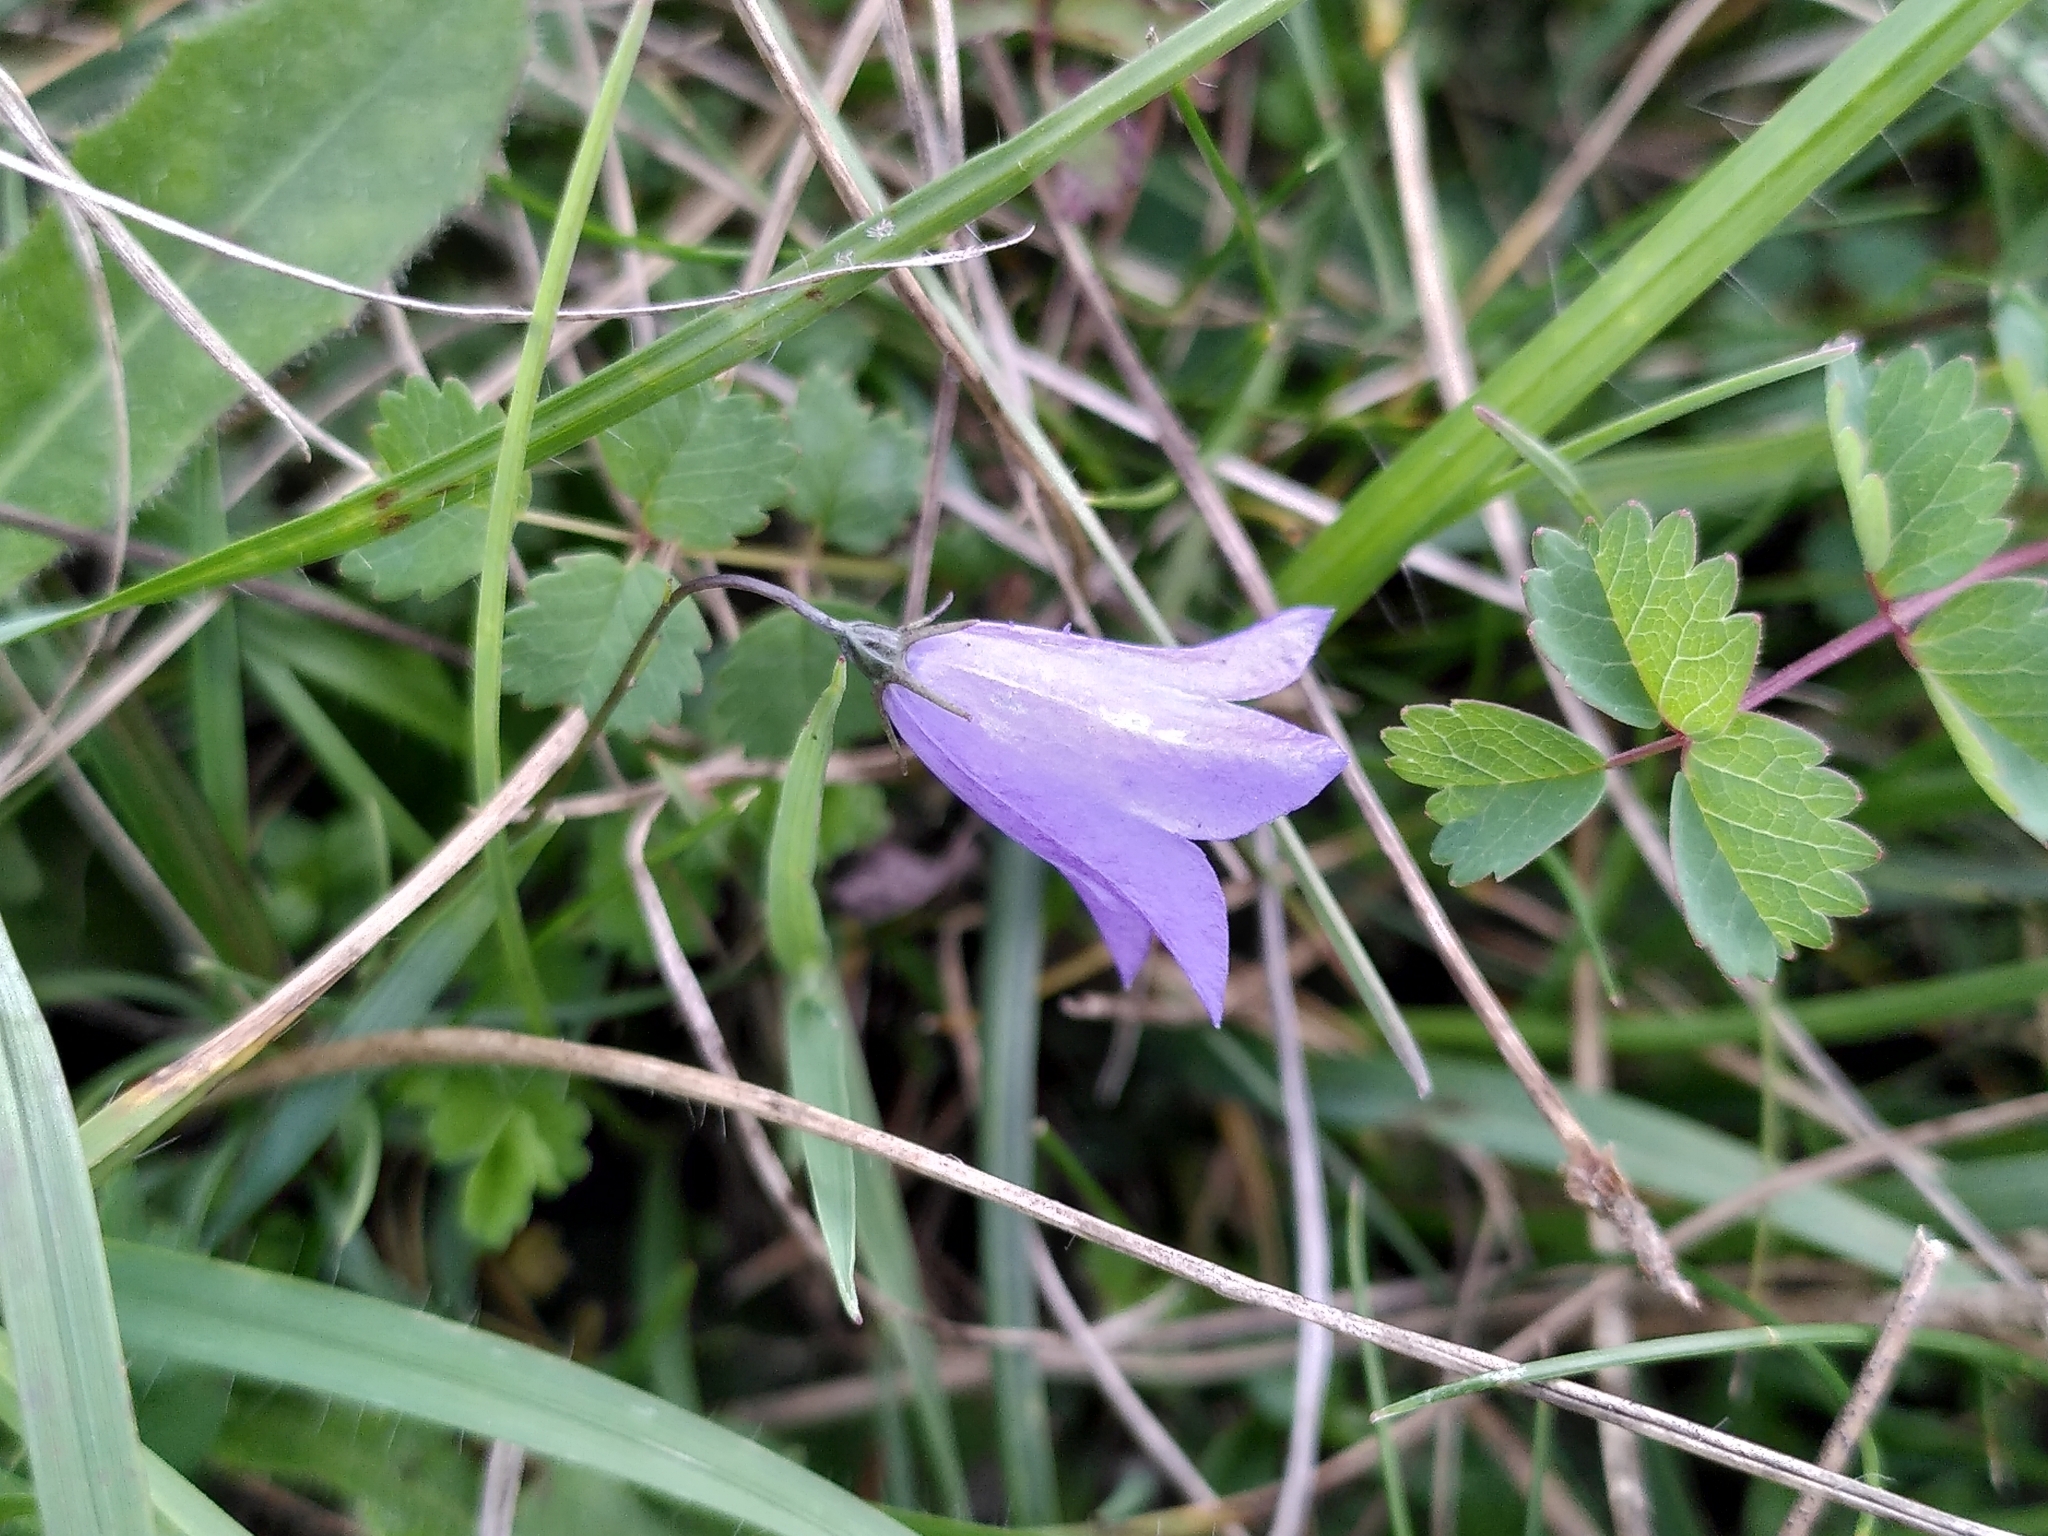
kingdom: Plantae
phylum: Tracheophyta
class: Magnoliopsida
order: Asterales
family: Campanulaceae
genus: Campanula
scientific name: Campanula rotundifolia
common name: Harebell
